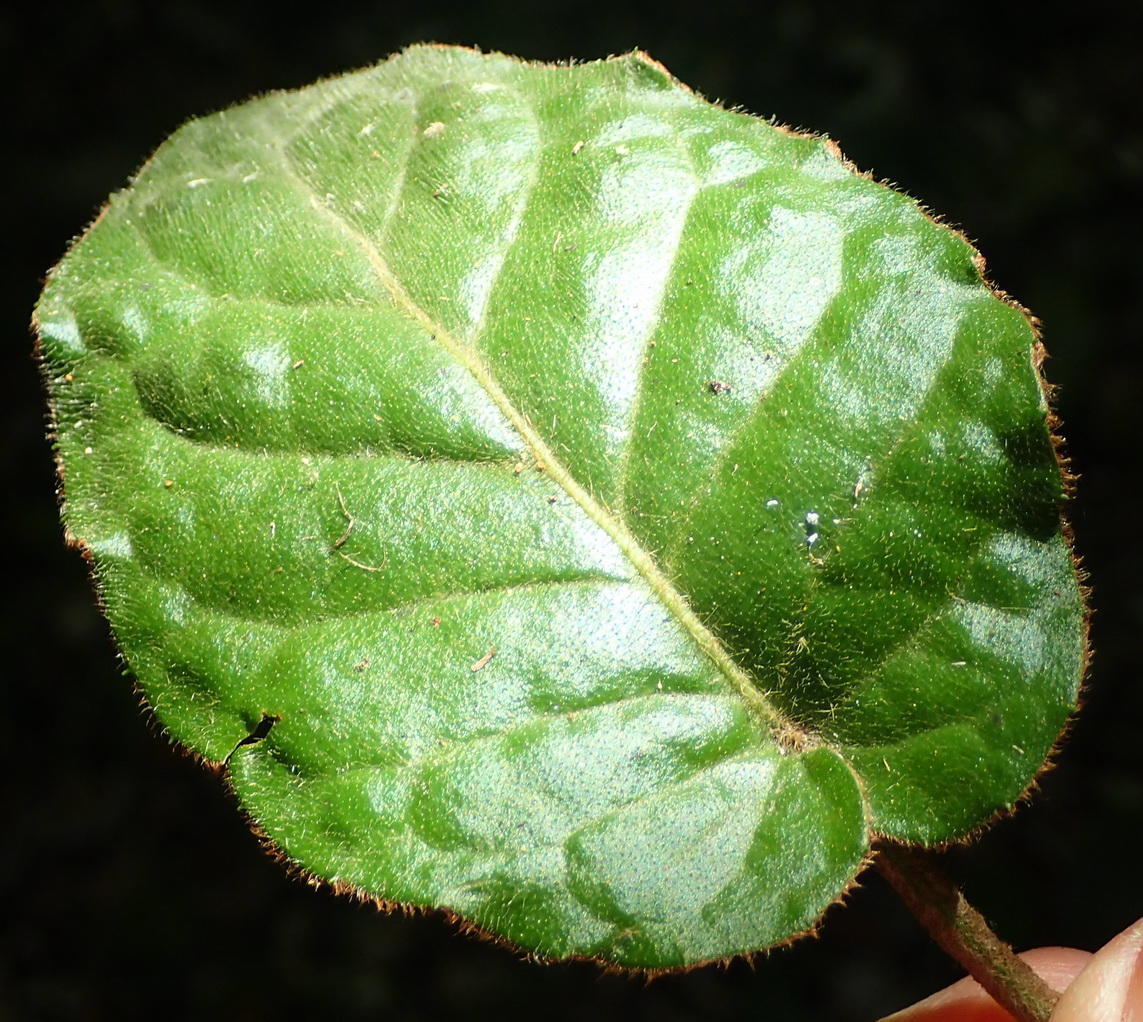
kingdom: Plantae
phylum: Tracheophyta
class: Magnoliopsida
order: Asterales
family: Asteraceae
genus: Piloselloides
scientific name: Piloselloides cordata
